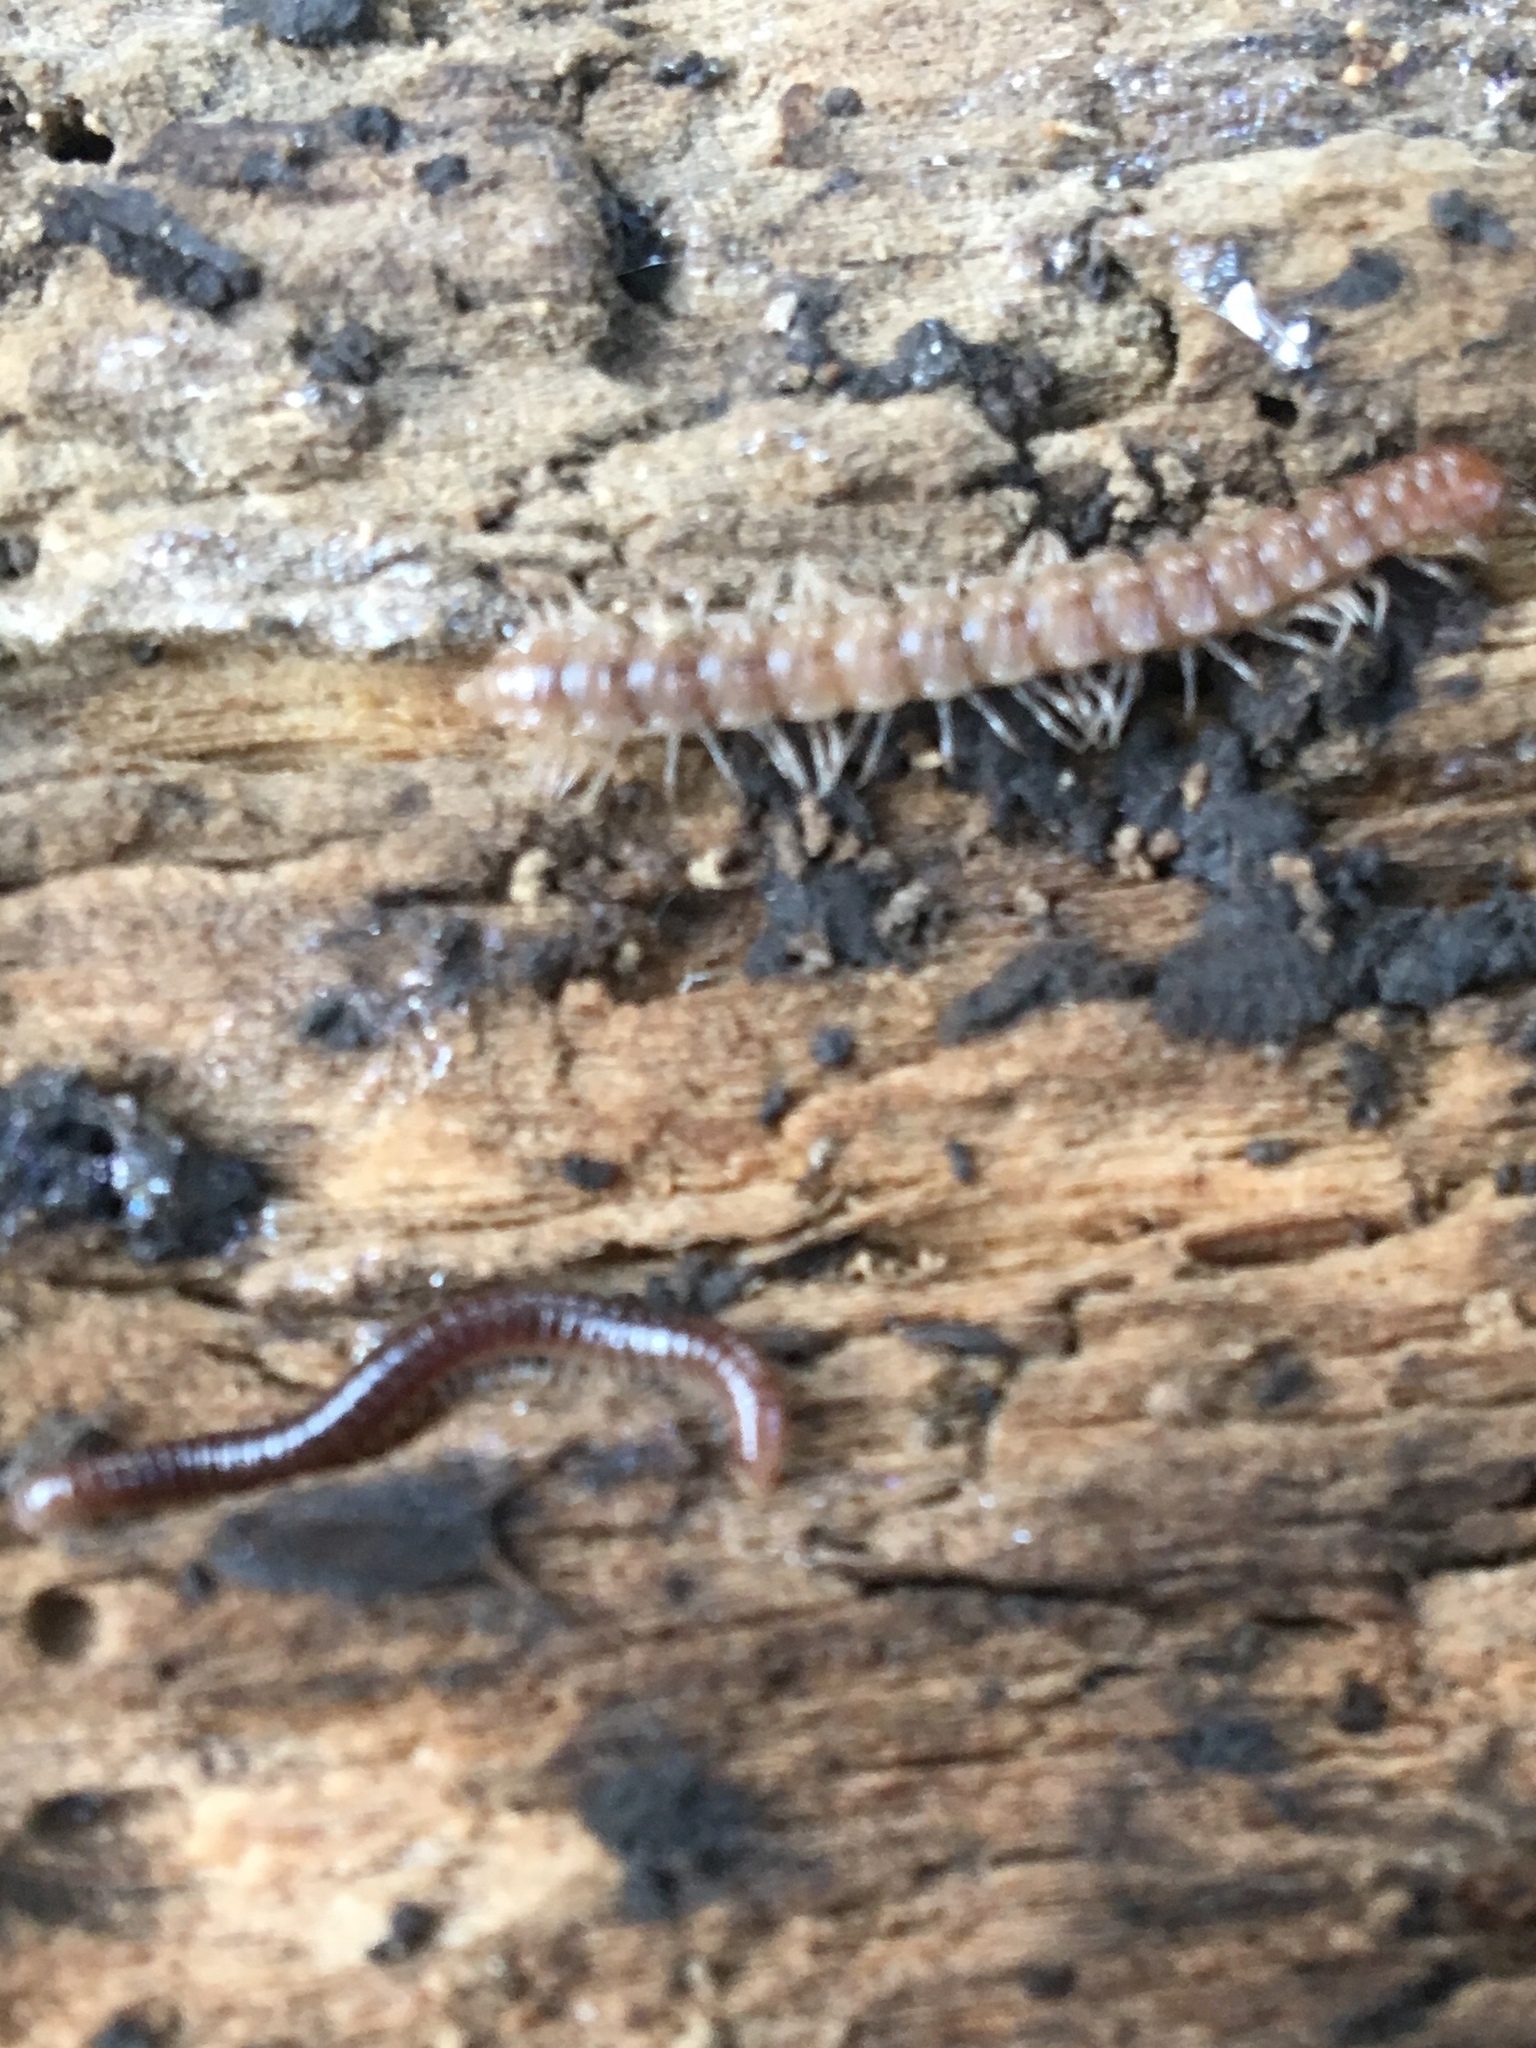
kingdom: Animalia
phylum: Arthropoda
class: Diplopoda
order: Polydesmida
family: Paradoxosomatidae
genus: Oxidus
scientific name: Oxidus gracilis
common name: Greenhouse millipede
